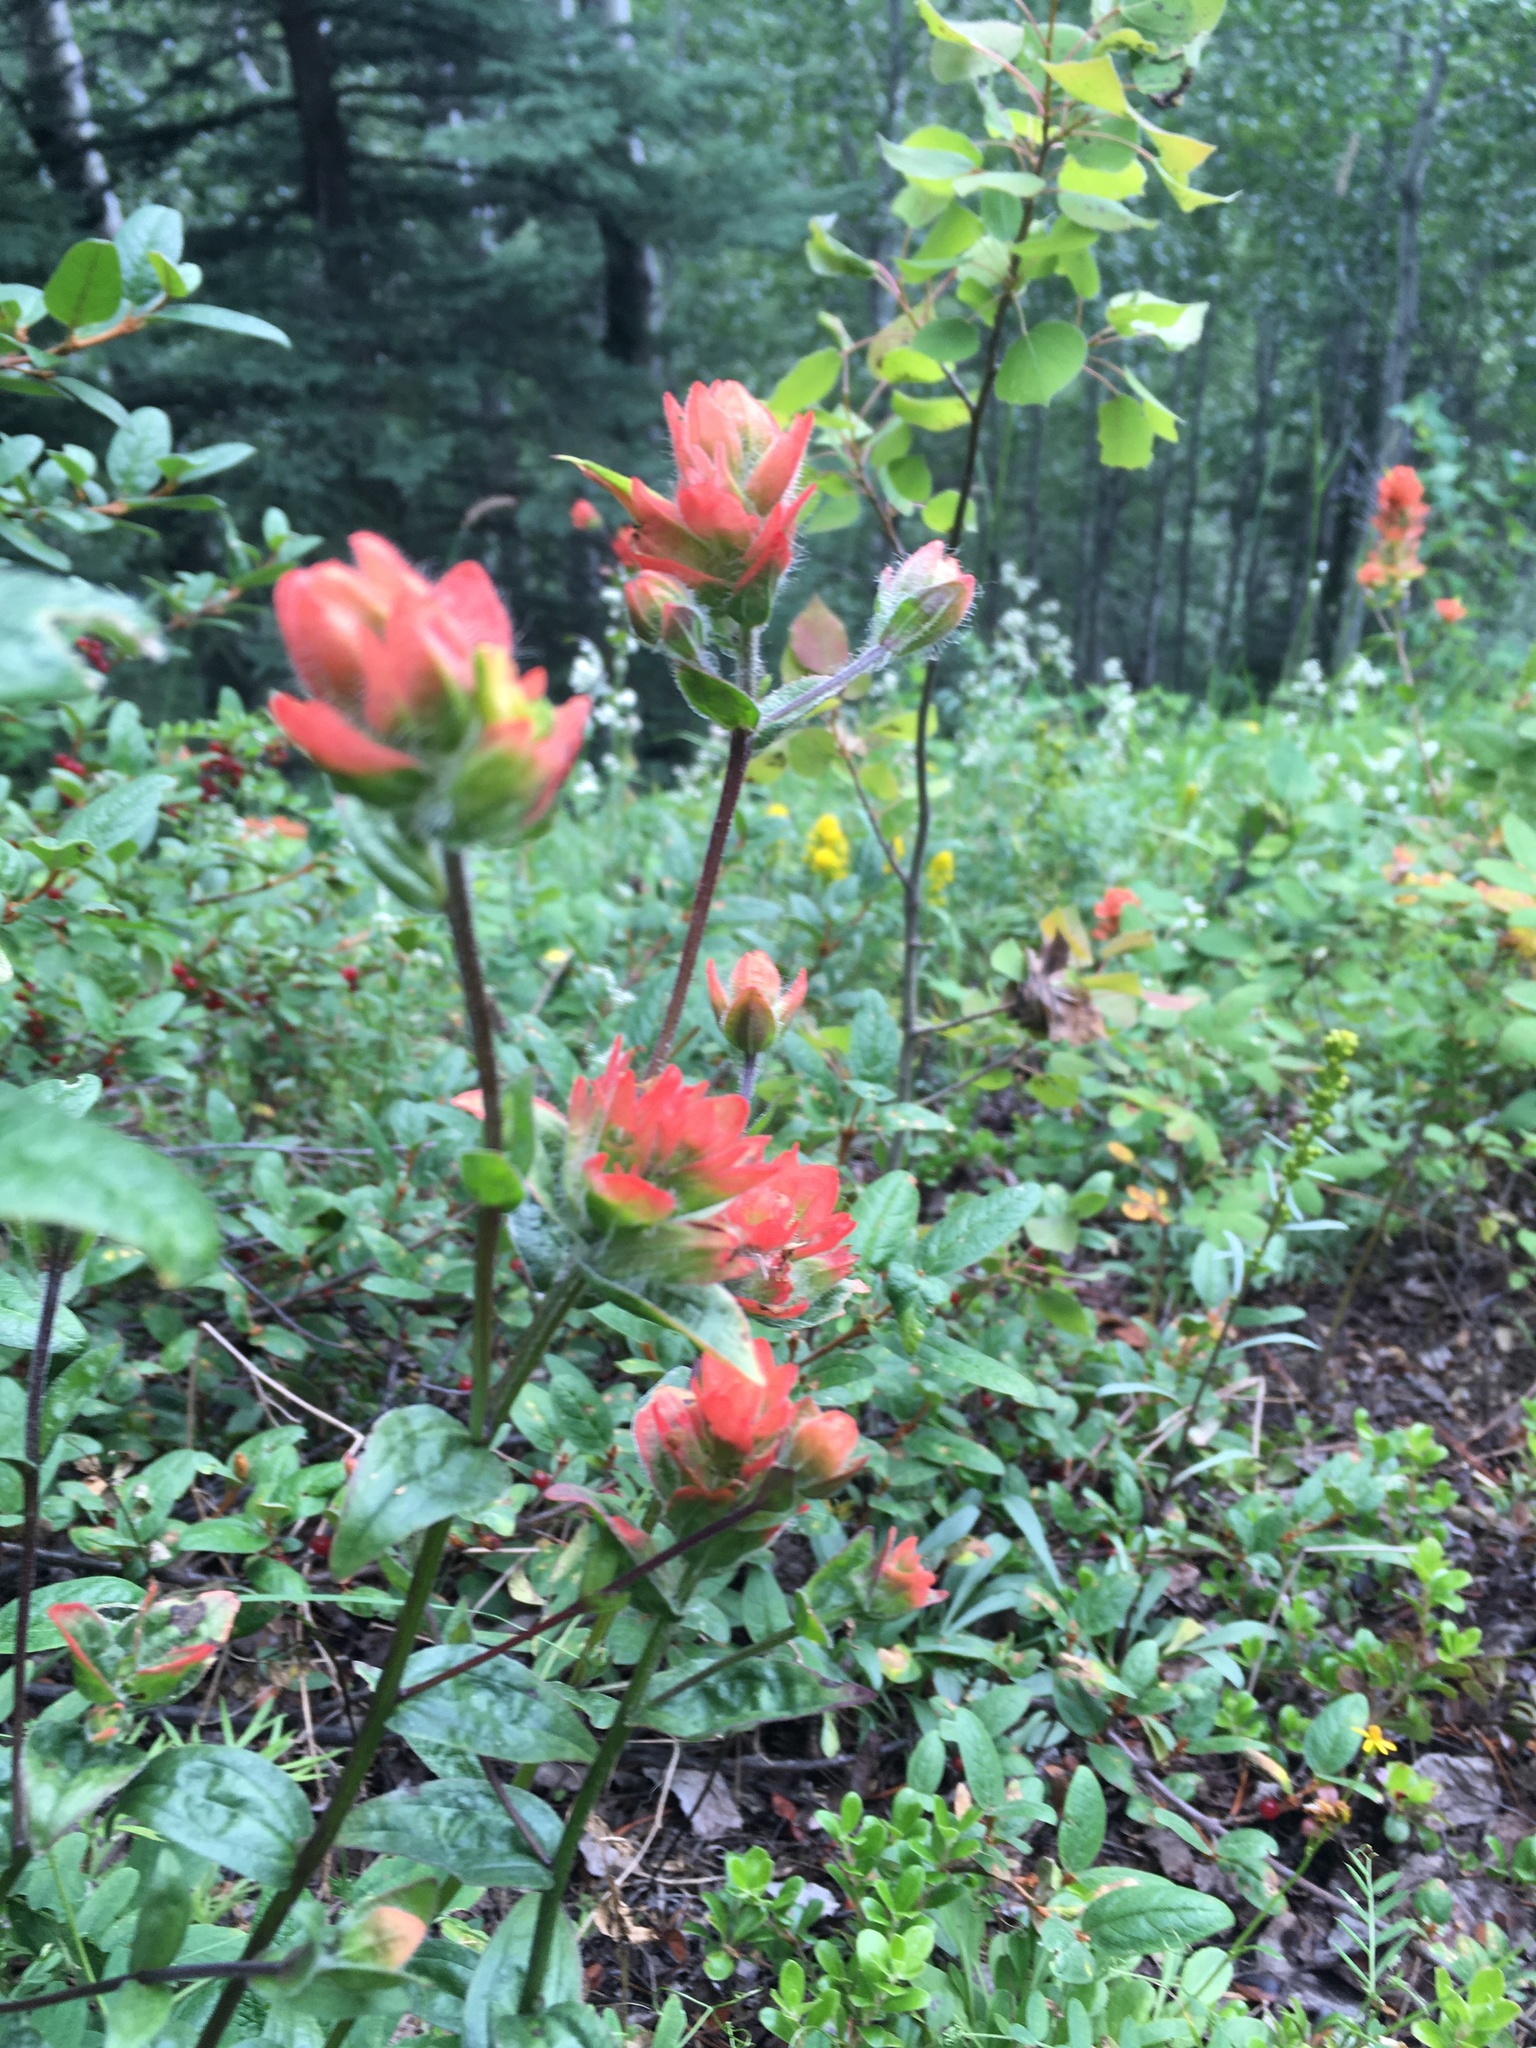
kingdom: Plantae
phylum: Tracheophyta
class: Magnoliopsida
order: Lamiales
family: Orobanchaceae
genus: Castilleja
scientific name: Castilleja miniata
